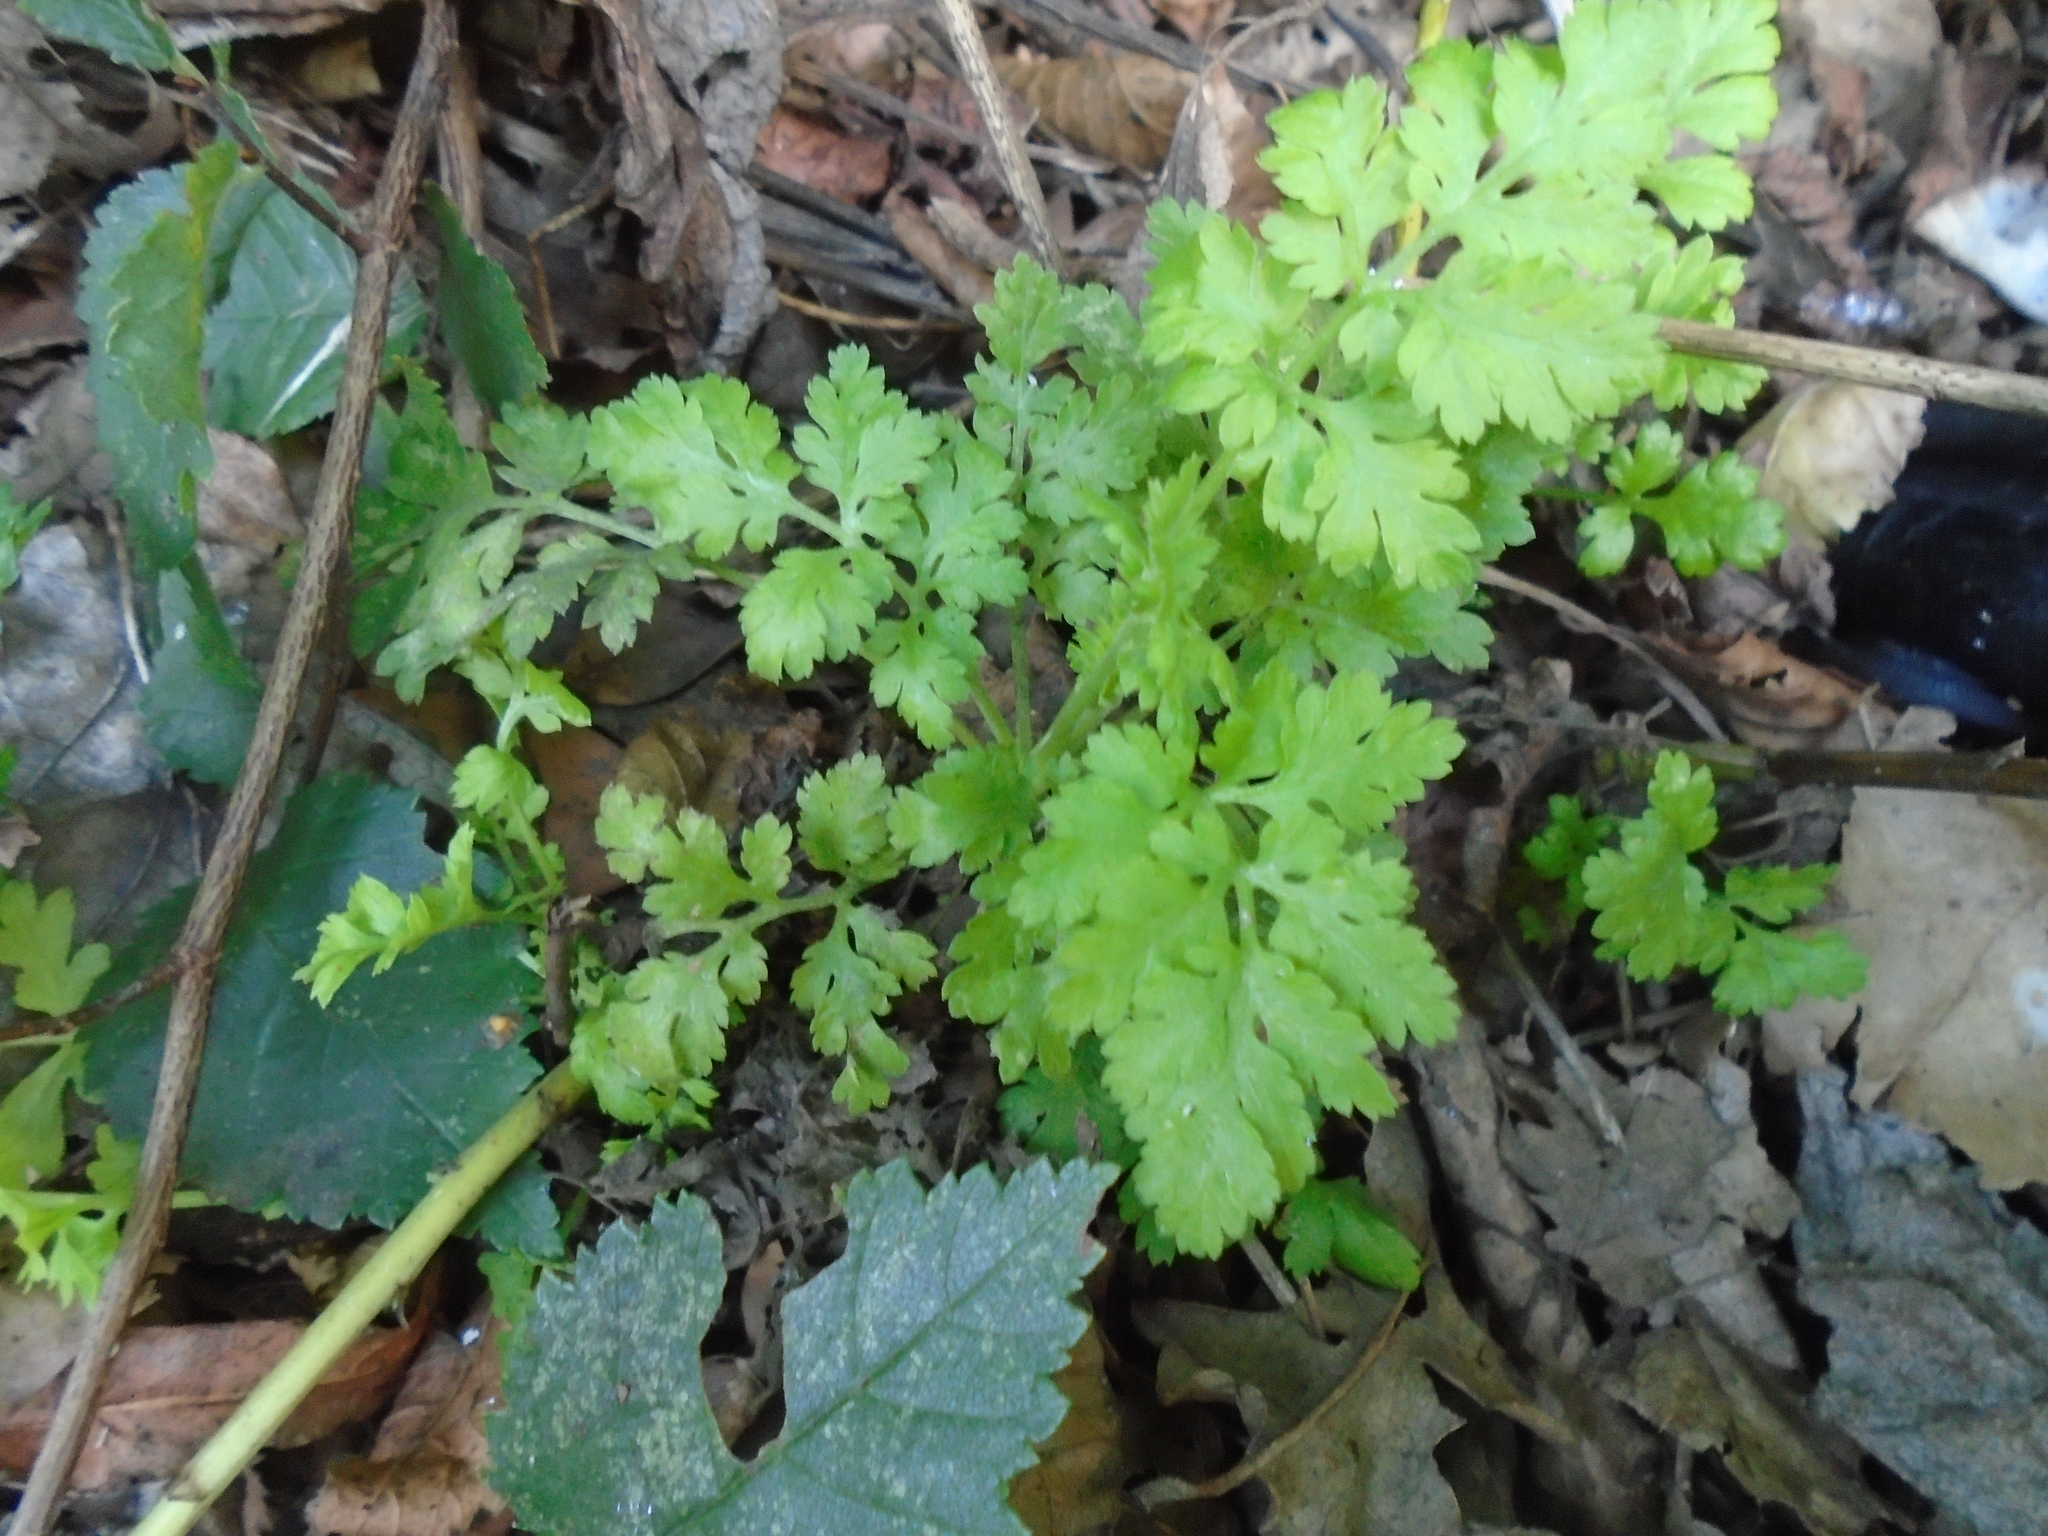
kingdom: Plantae
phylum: Tracheophyta
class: Magnoliopsida
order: Asterales
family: Asteraceae
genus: Tanacetum
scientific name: Tanacetum parthenium
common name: Feverfew
